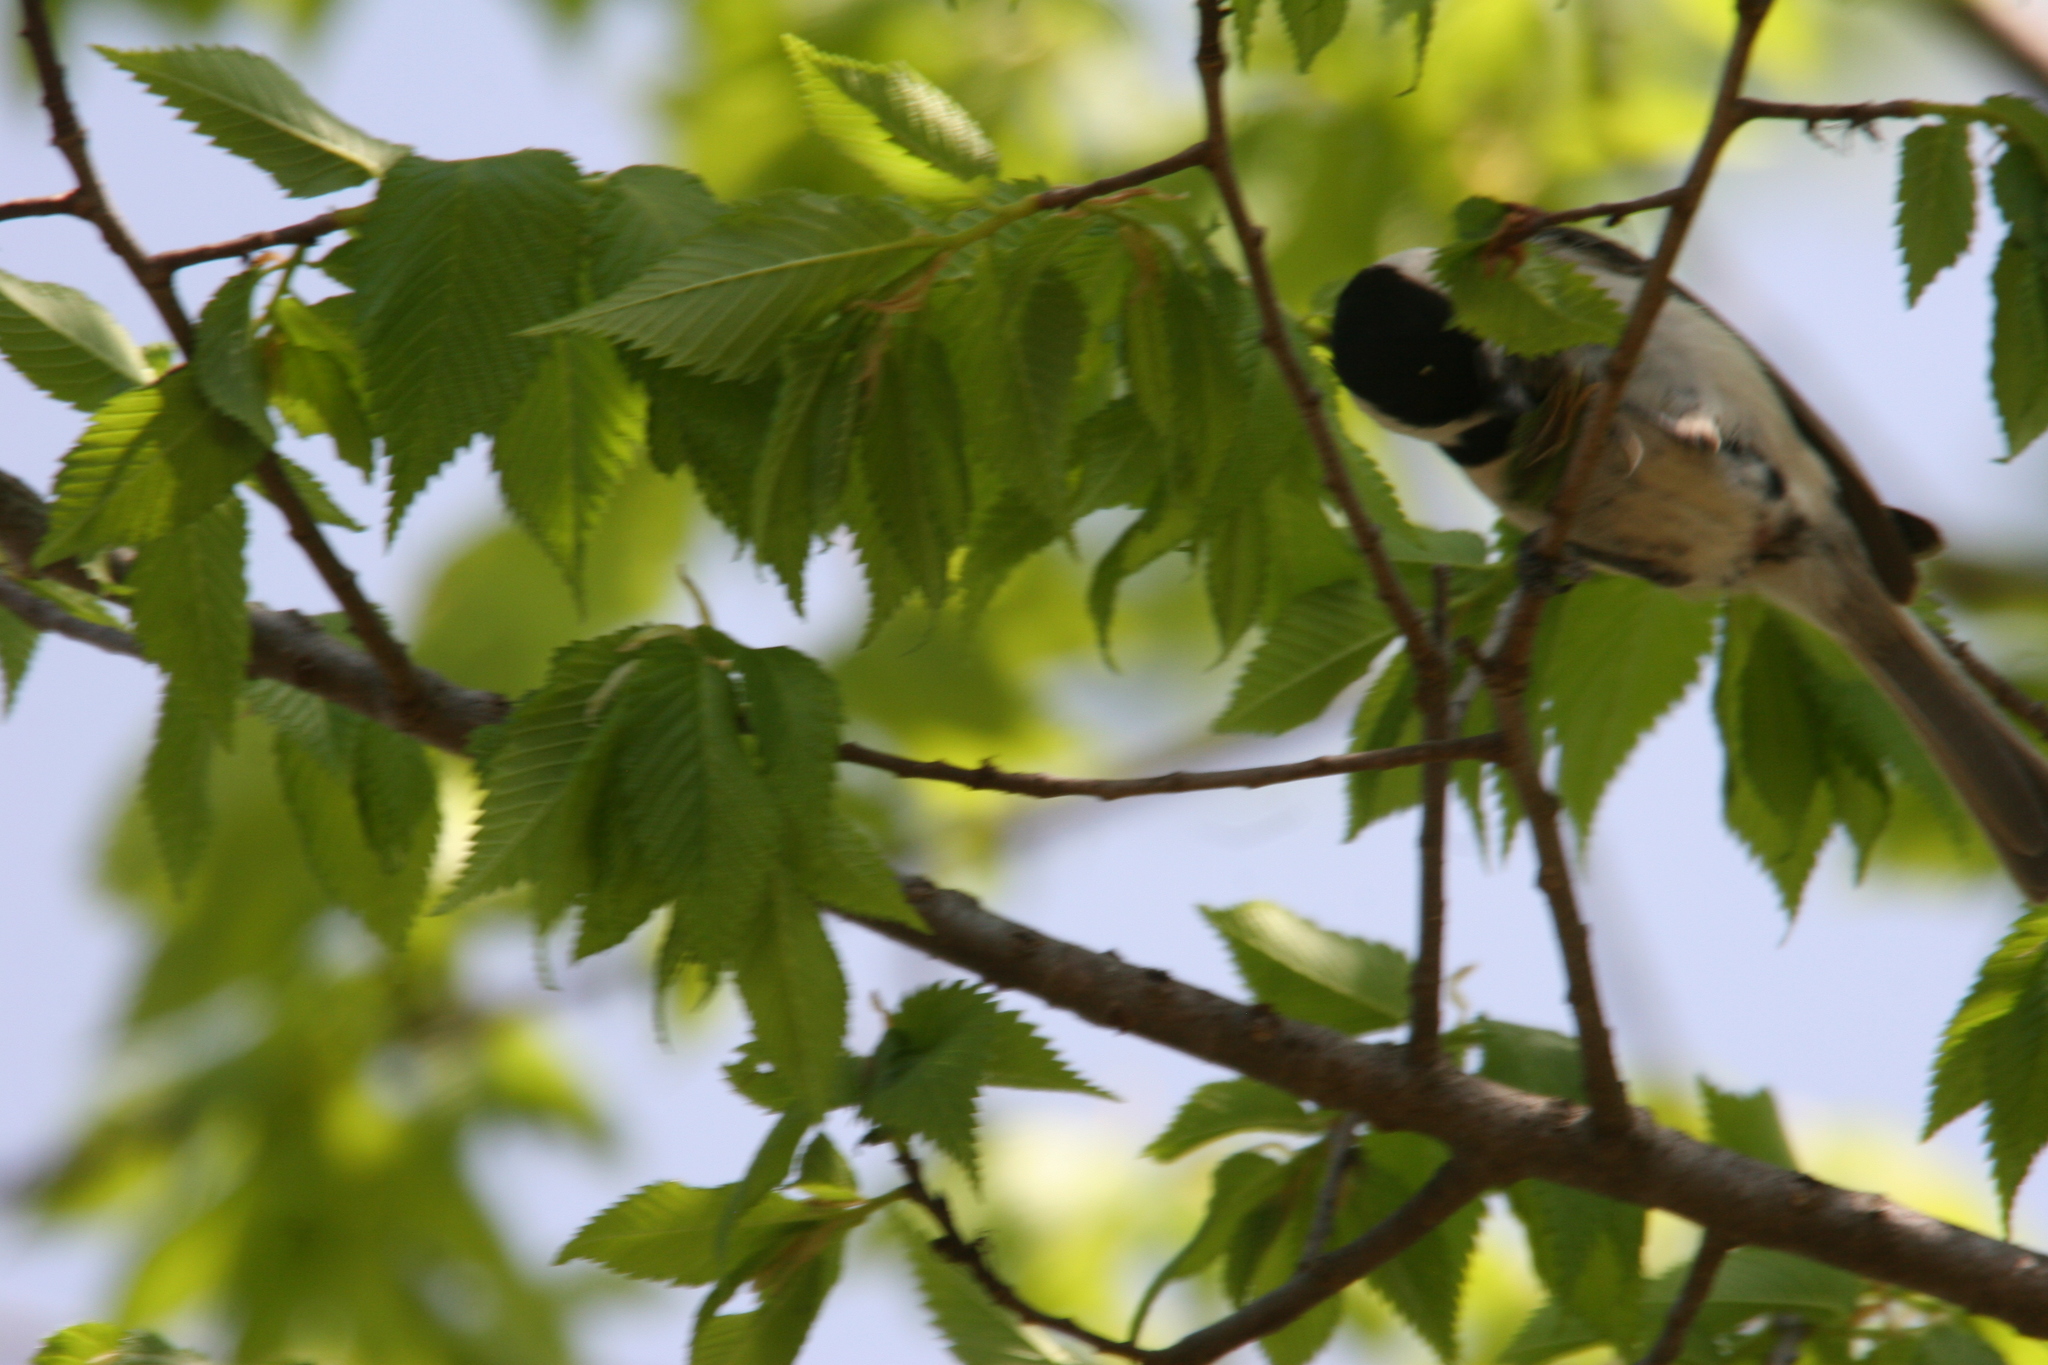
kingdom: Animalia
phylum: Chordata
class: Aves
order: Passeriformes
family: Paridae
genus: Poecile
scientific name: Poecile carolinensis
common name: Carolina chickadee
